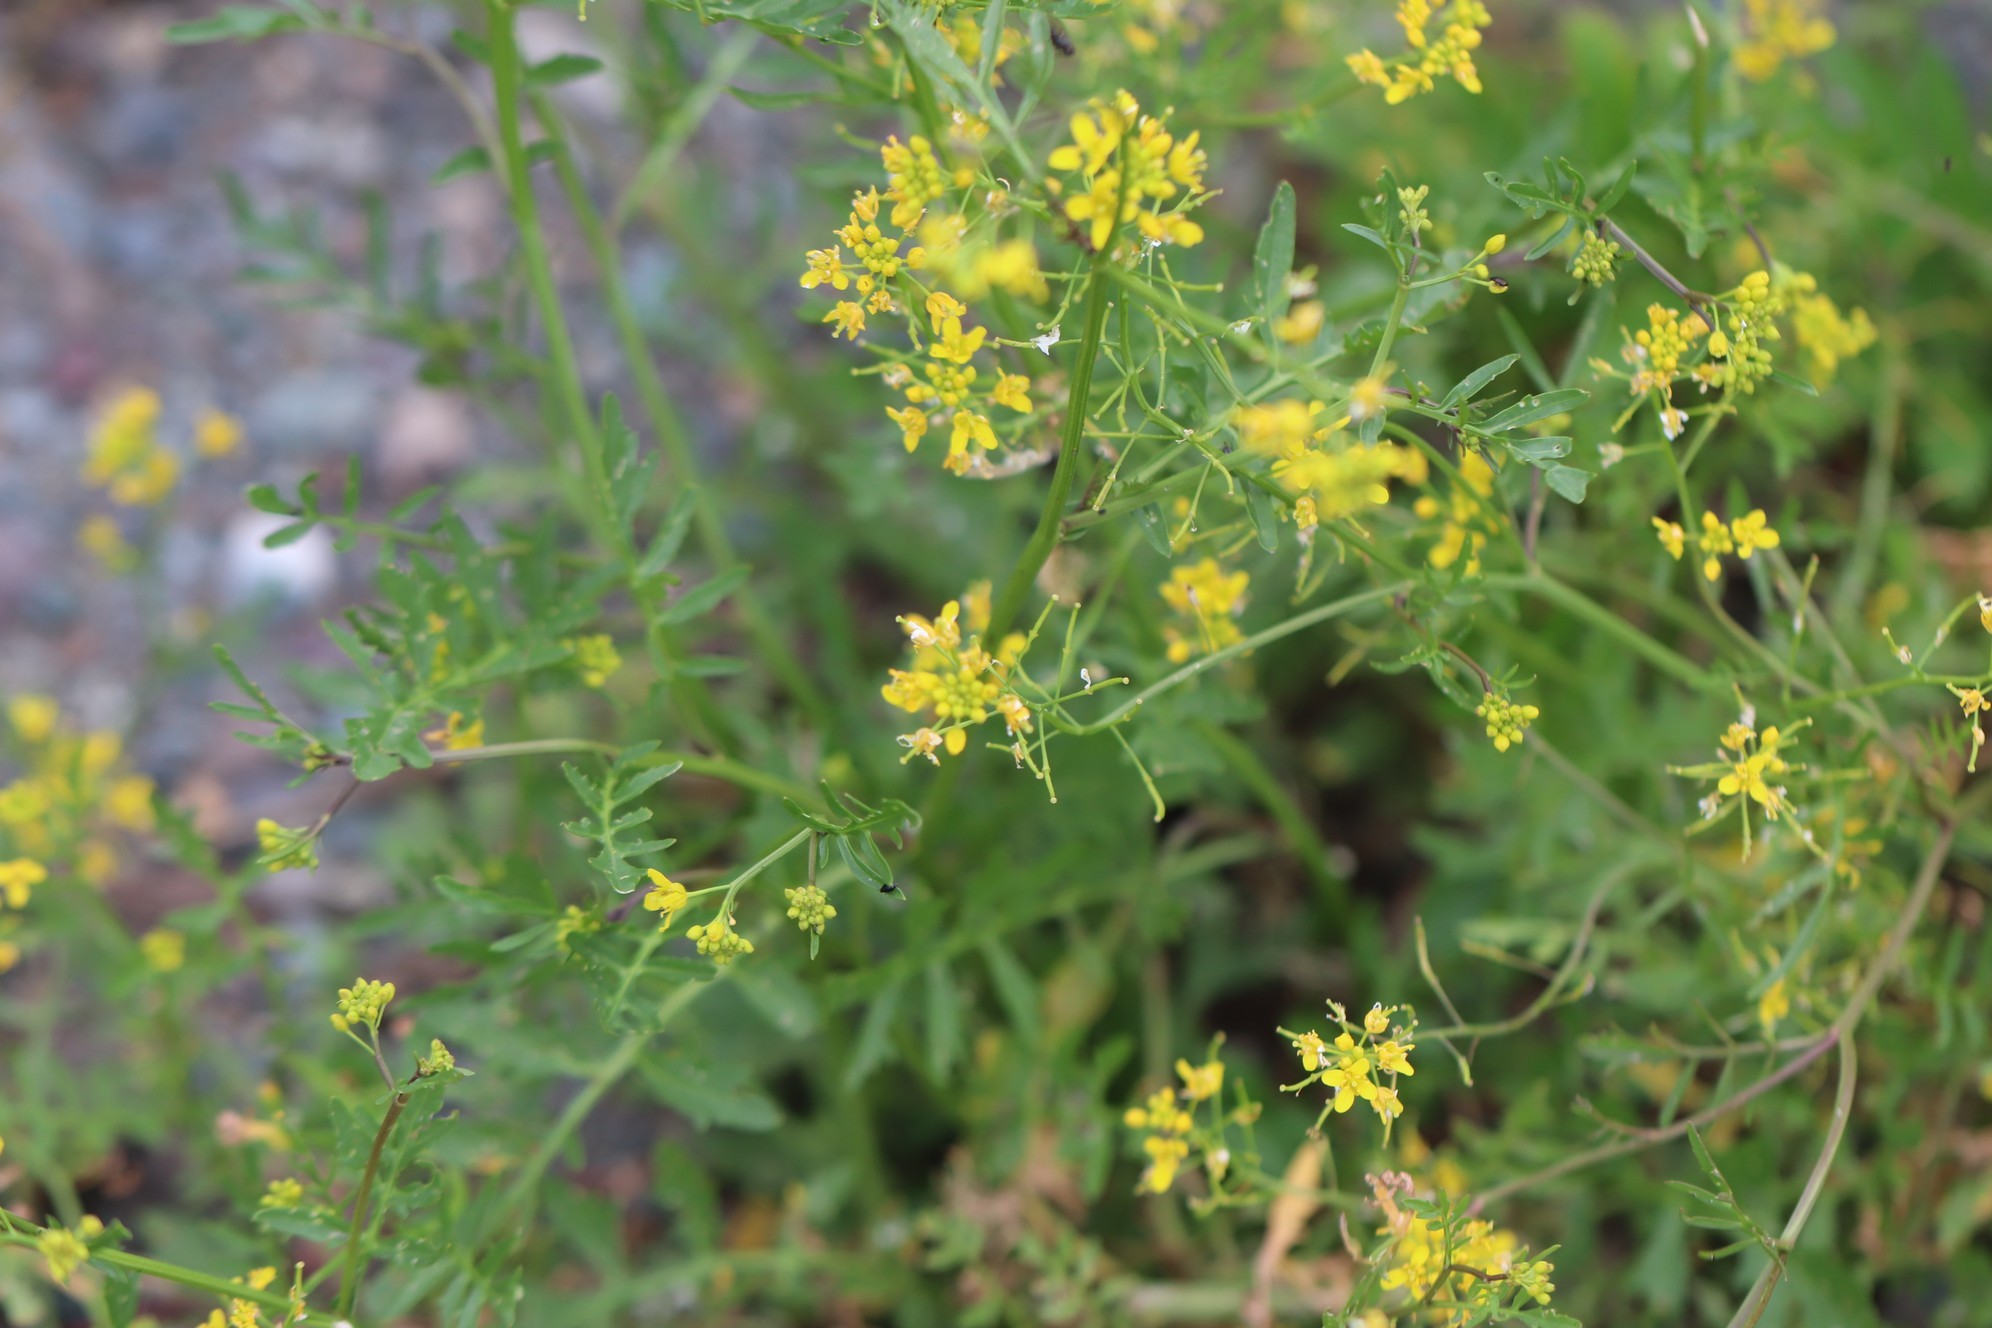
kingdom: Plantae
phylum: Tracheophyta
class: Magnoliopsida
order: Brassicales
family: Brassicaceae
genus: Rorippa
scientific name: Rorippa sylvestris
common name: Creeping yellowcress
